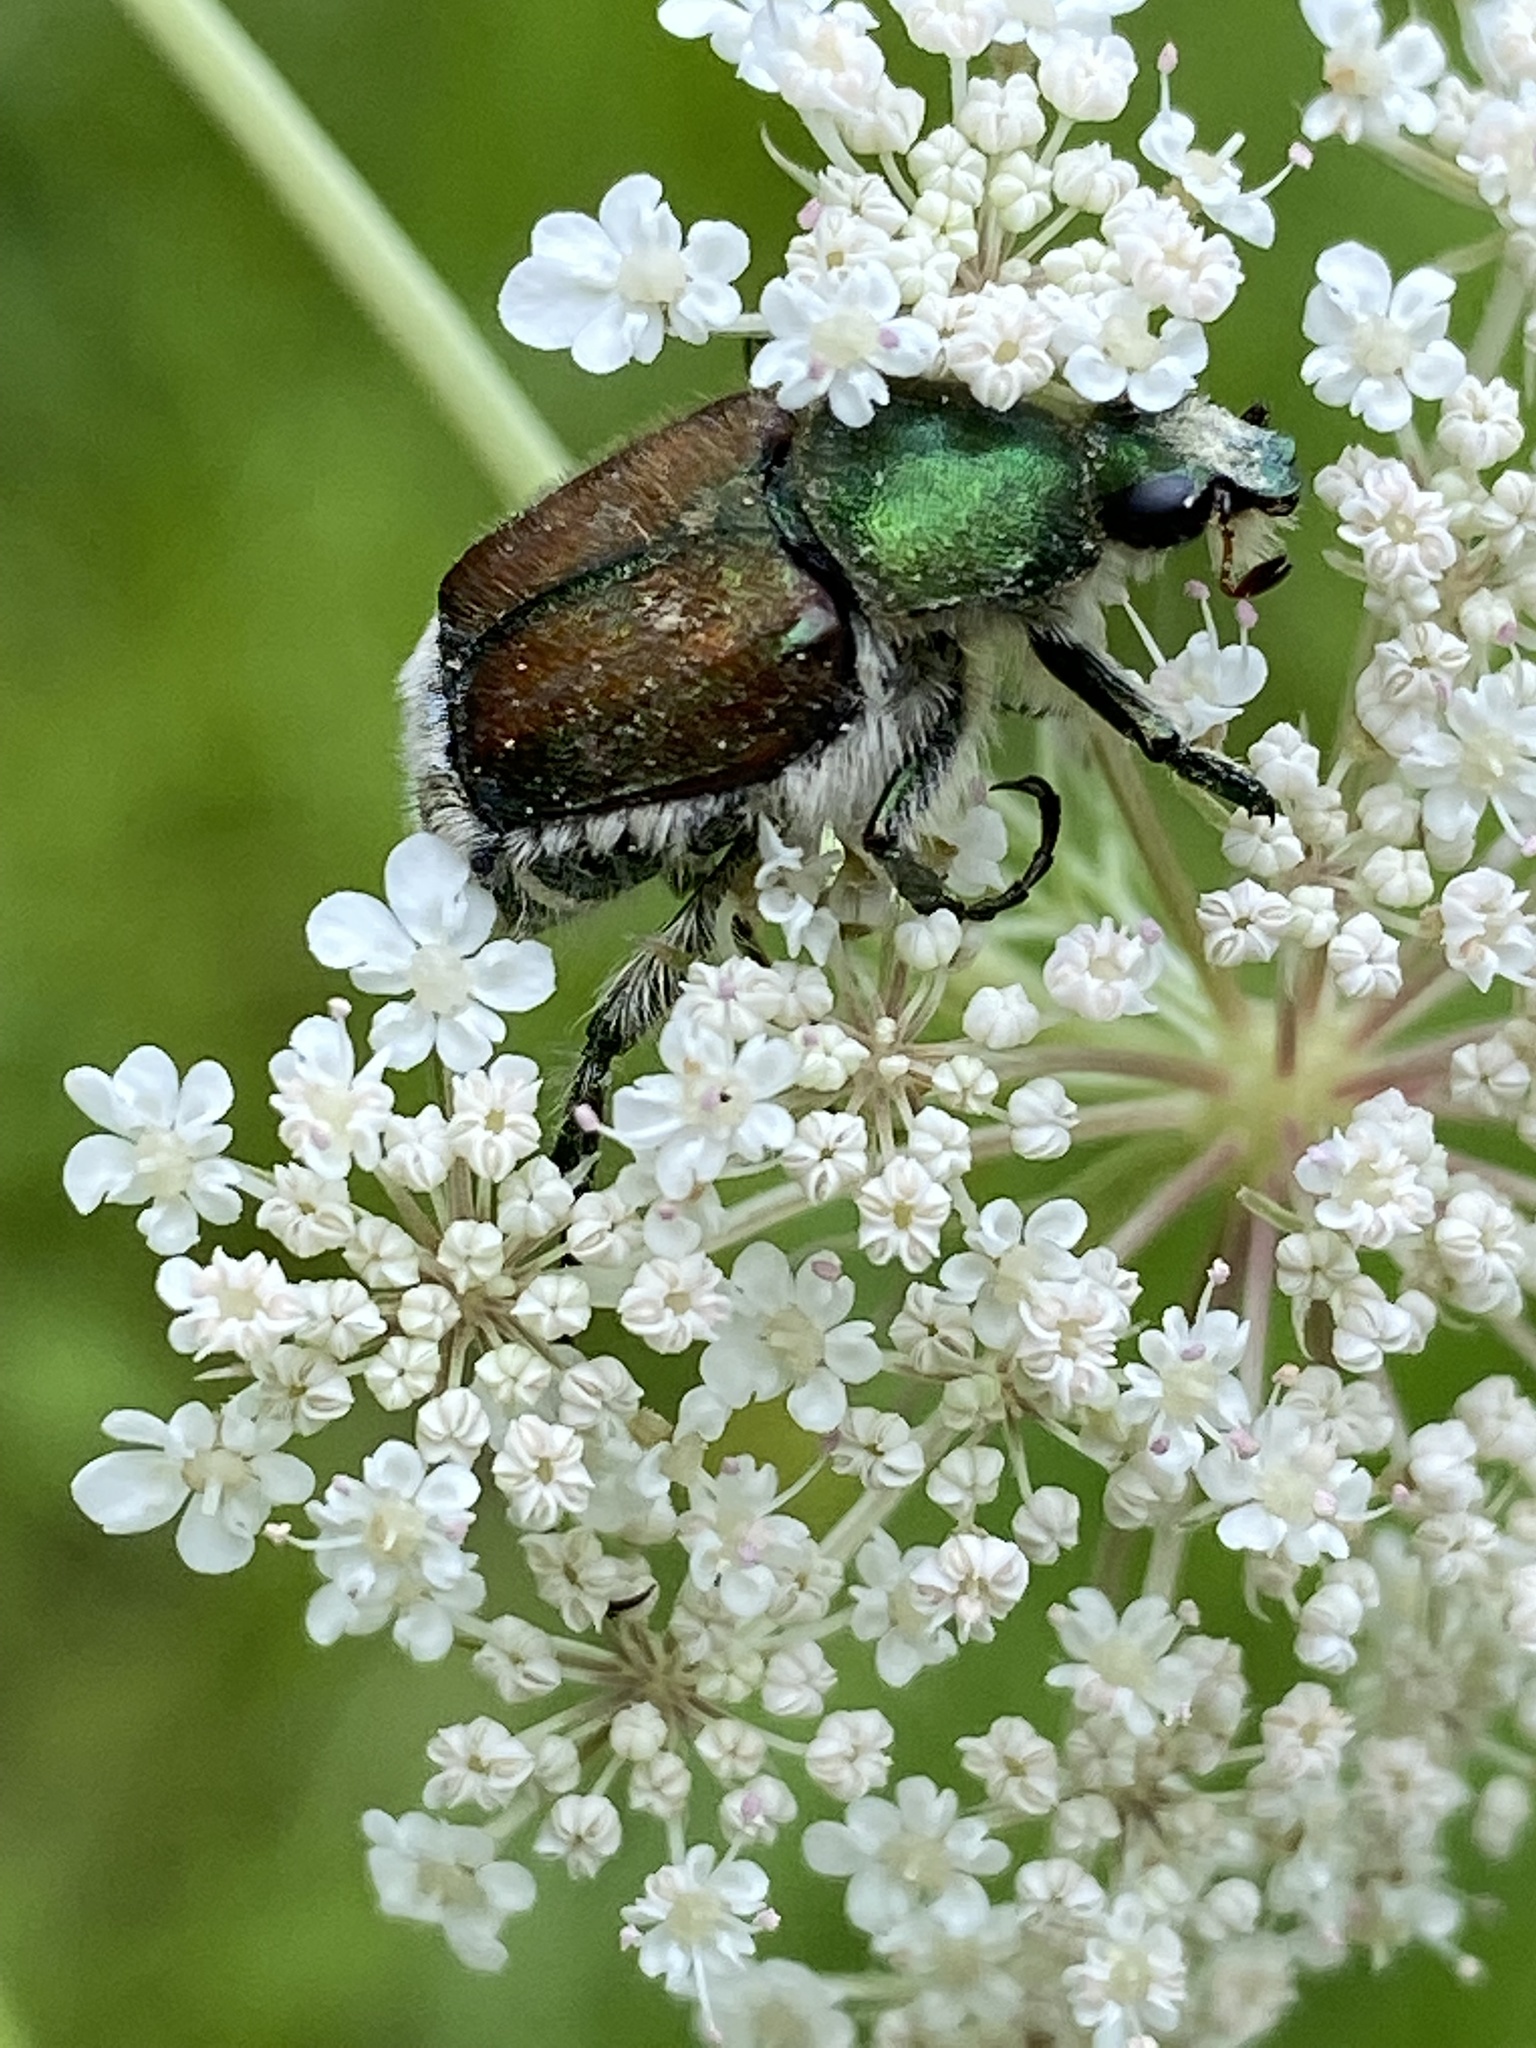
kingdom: Animalia
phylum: Arthropoda
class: Insecta
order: Coleoptera
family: Scarabaeidae
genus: Trichiotinus
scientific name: Trichiotinus lunulatus
